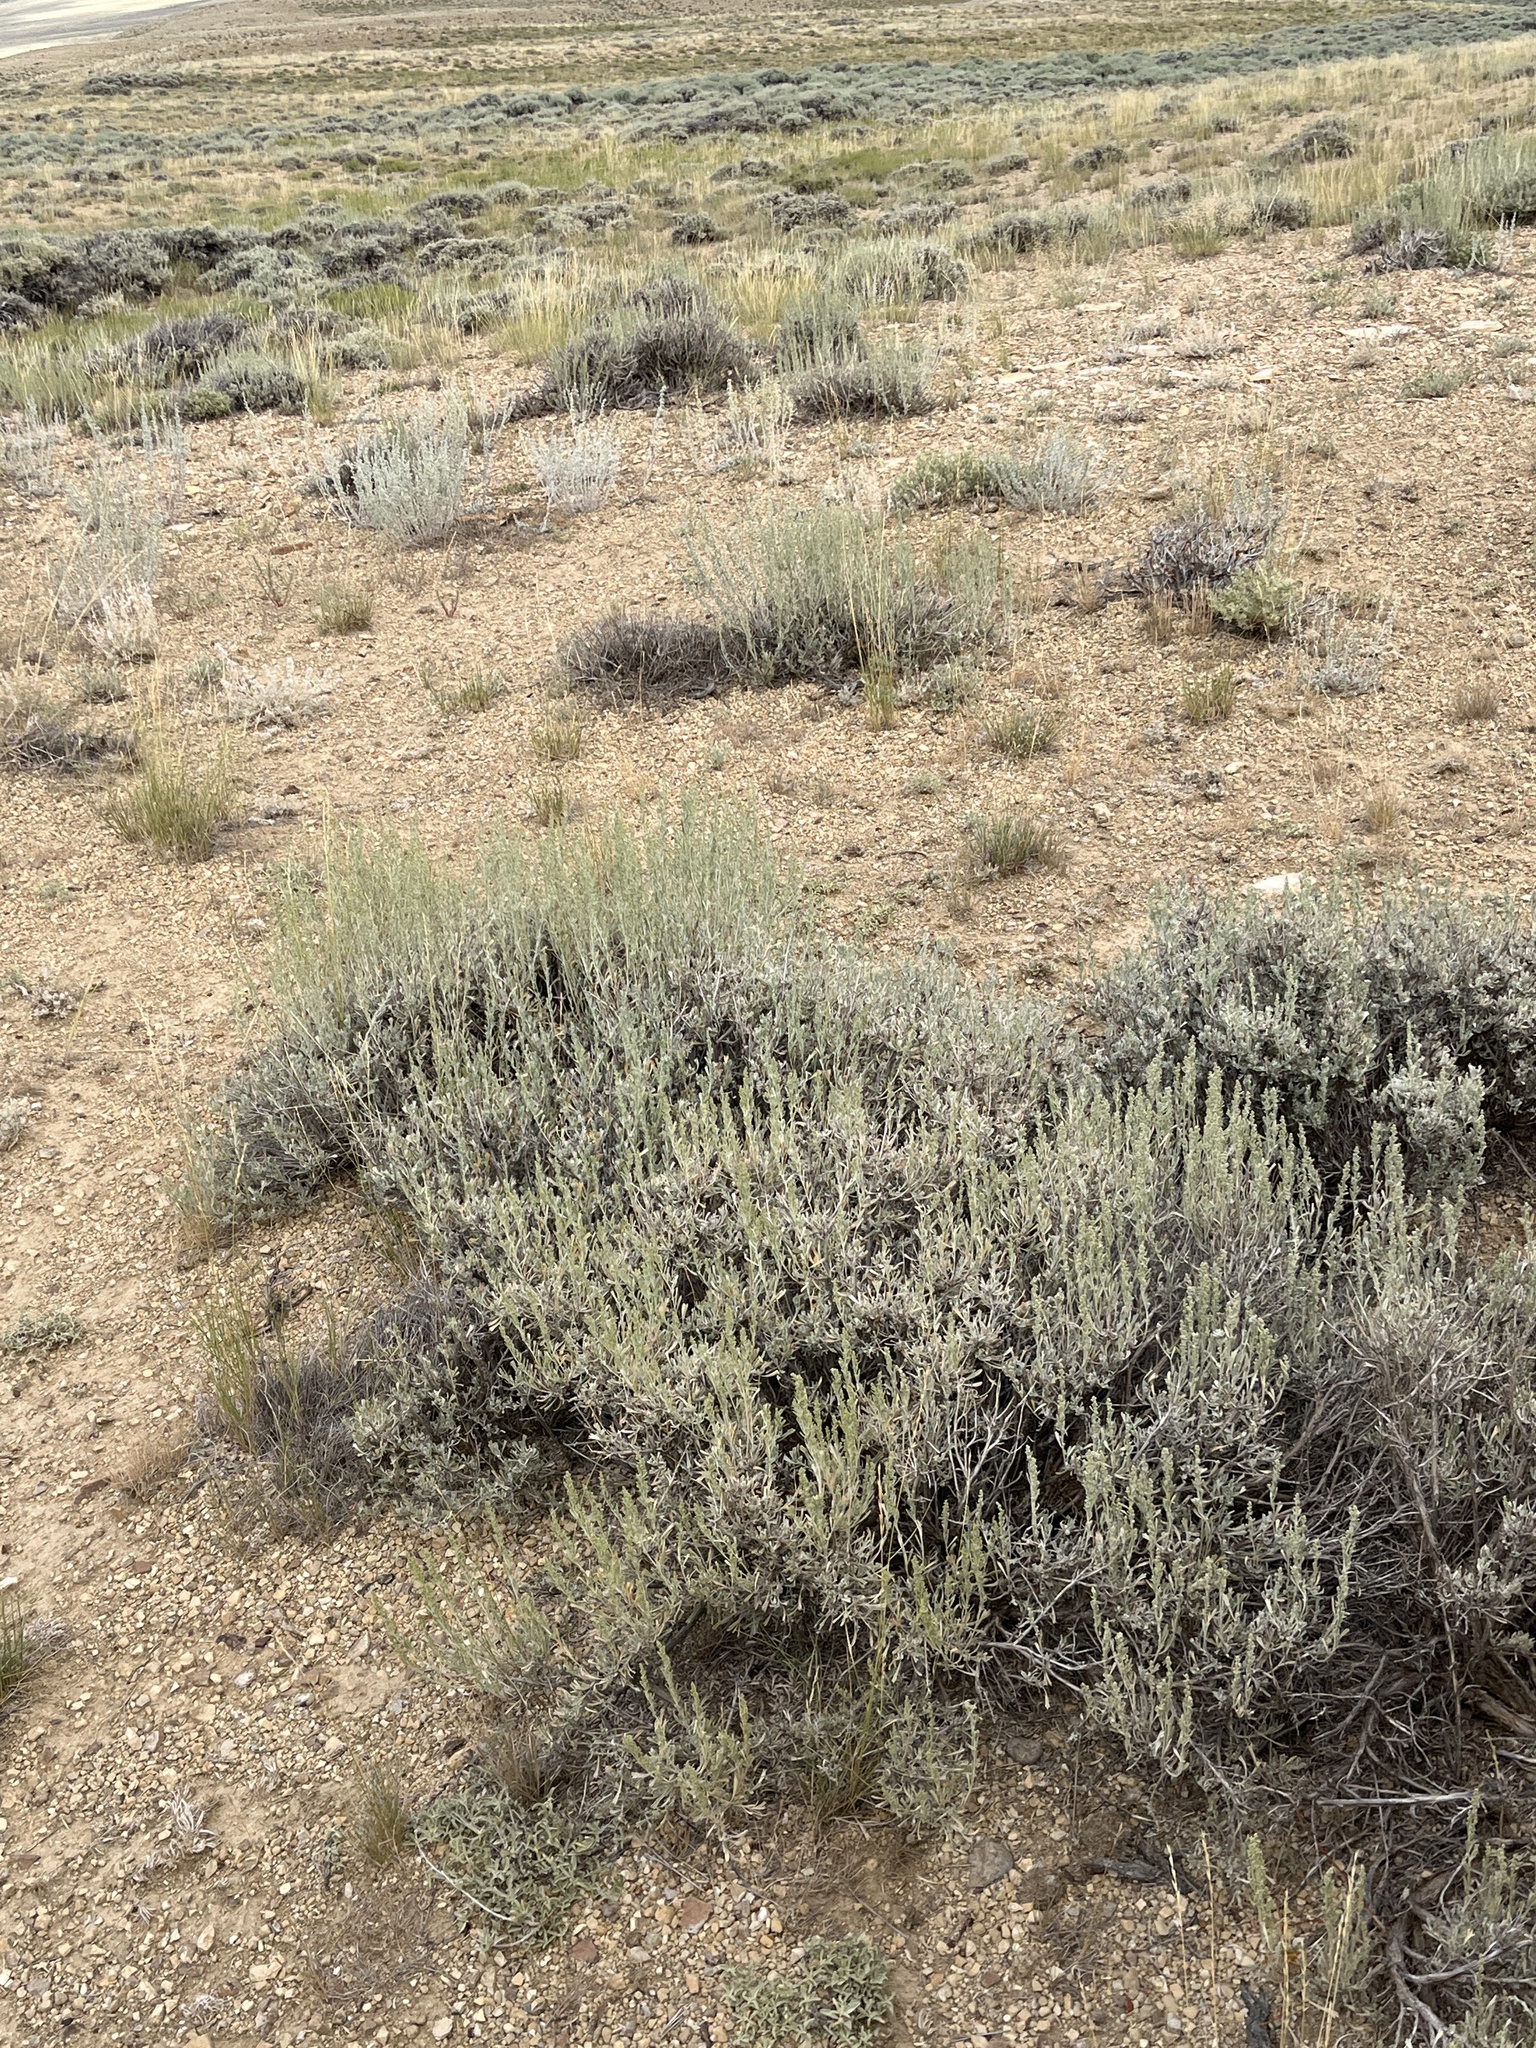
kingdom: Plantae
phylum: Tracheophyta
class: Magnoliopsida
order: Asterales
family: Asteraceae
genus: Artemisia
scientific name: Artemisia arbuscula
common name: Sagebrush
